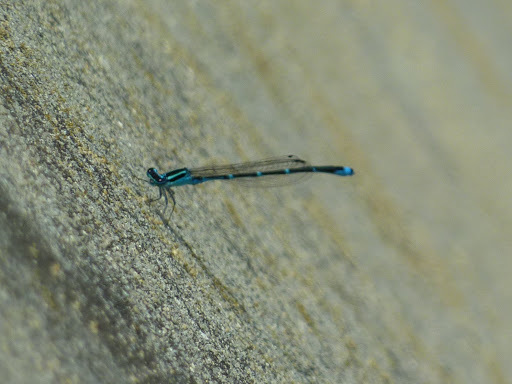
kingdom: Animalia
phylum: Arthropoda
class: Insecta
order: Odonata
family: Coenagrionidae
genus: Enallagma
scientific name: Enallagma exsulans
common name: Stream bluet
